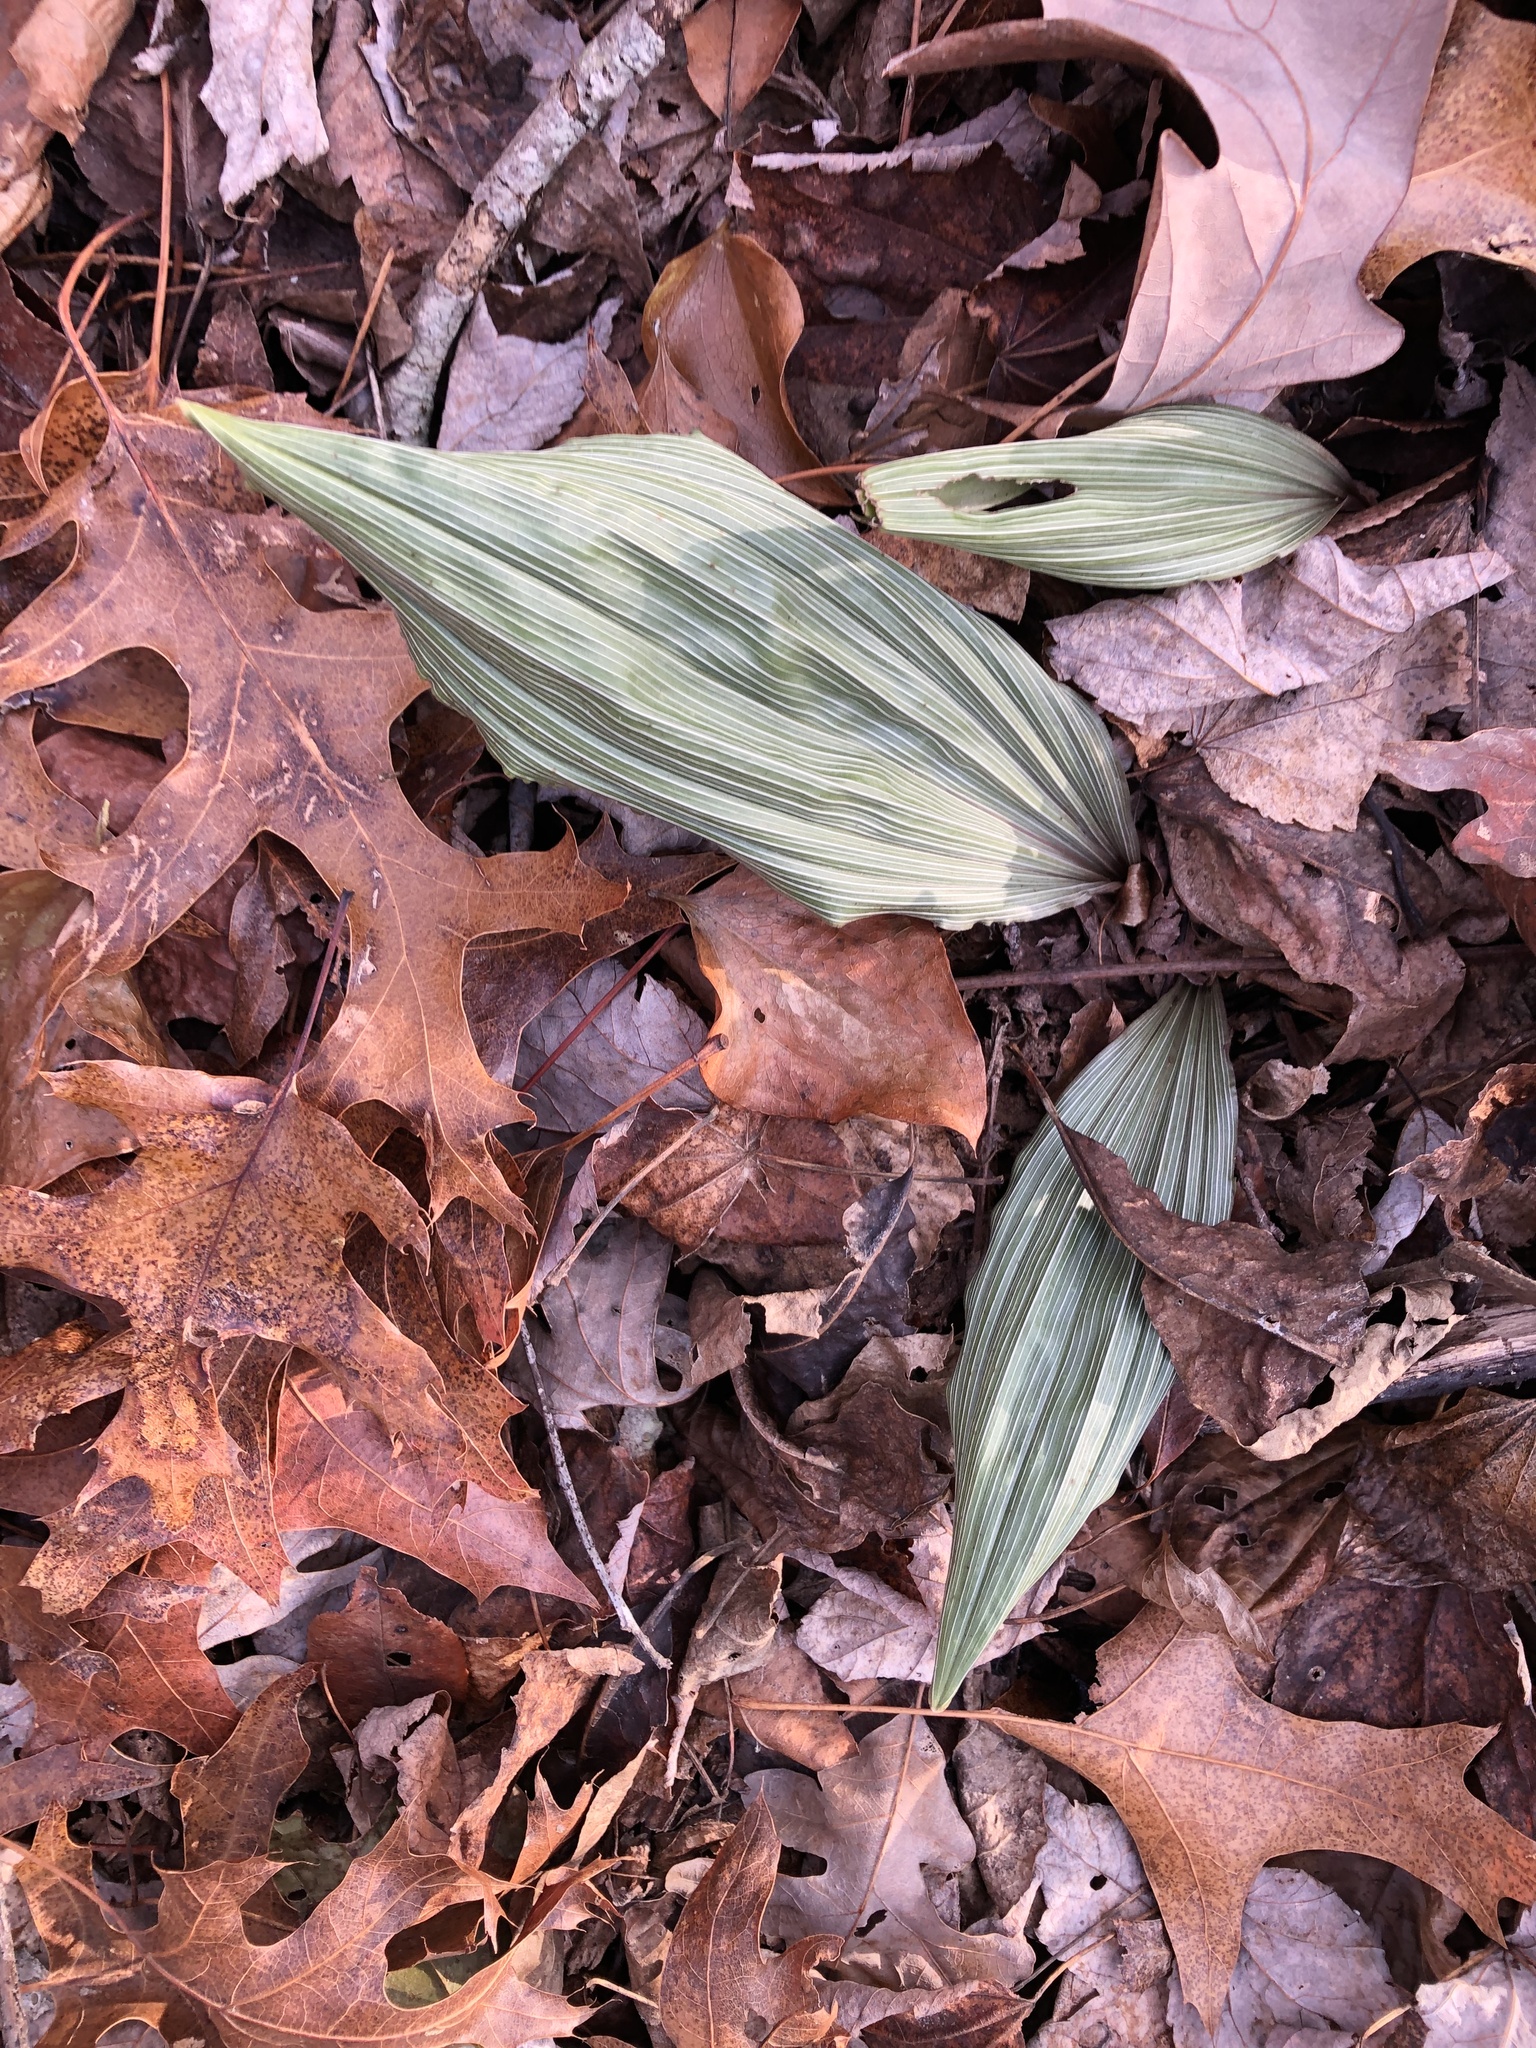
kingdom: Plantae
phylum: Tracheophyta
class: Liliopsida
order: Asparagales
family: Orchidaceae
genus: Aplectrum
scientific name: Aplectrum hyemale
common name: Adam-and-eve
